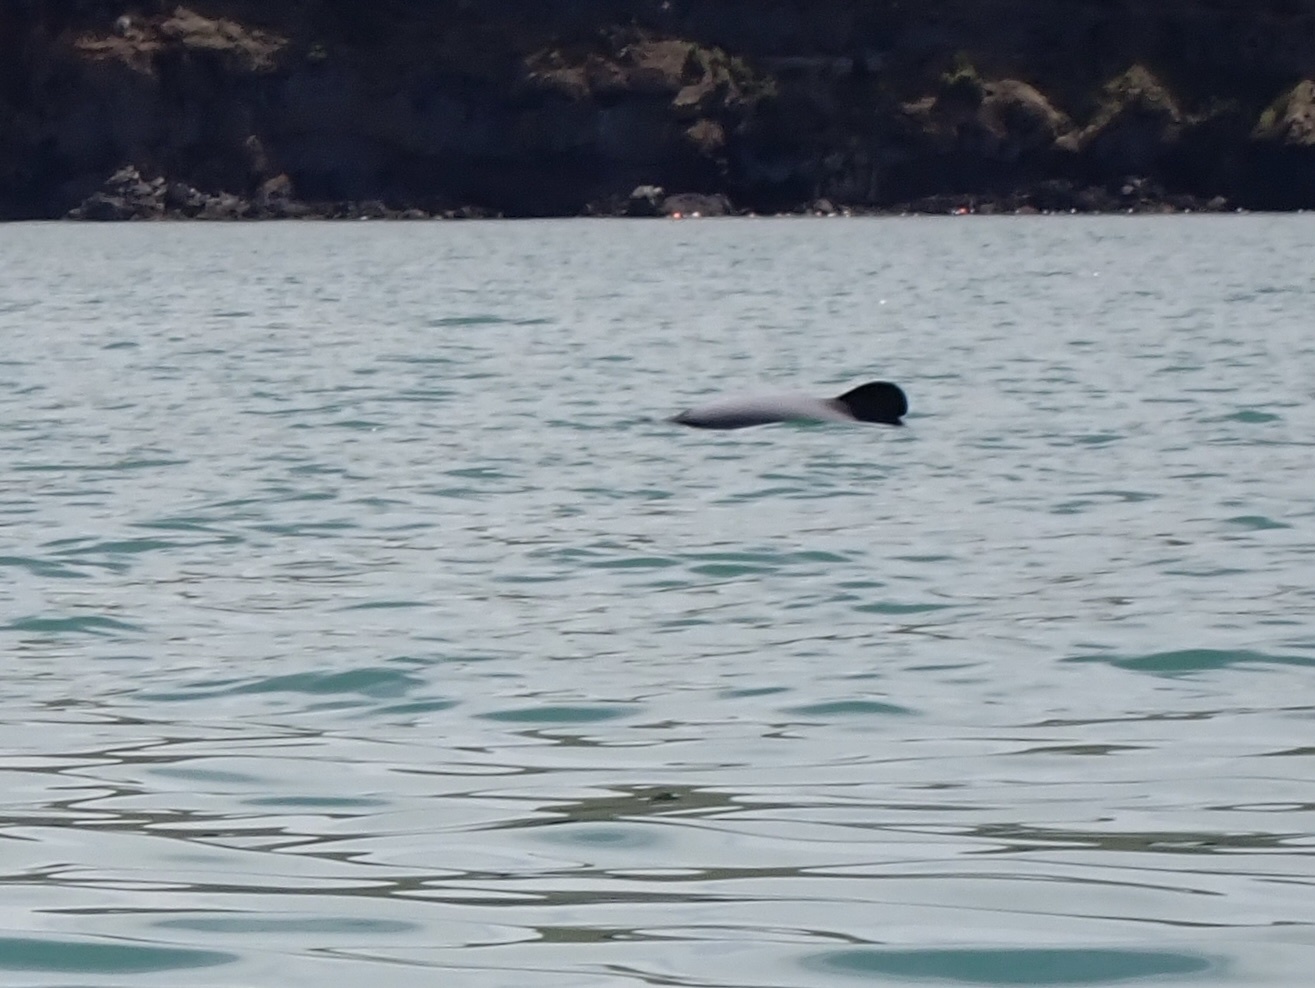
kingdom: Animalia
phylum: Chordata
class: Mammalia
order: Cetacea
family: Delphinidae
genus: Cephalorhynchus
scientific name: Cephalorhynchus hectori
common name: Hector's dolphin
